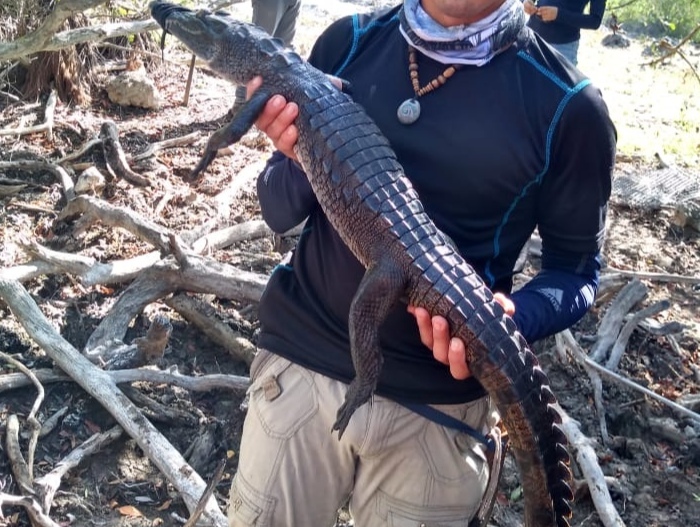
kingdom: Animalia
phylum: Chordata
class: Crocodylia
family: Crocodylidae
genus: Crocodylus
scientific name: Crocodylus moreletii
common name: Morelet's crocodile
